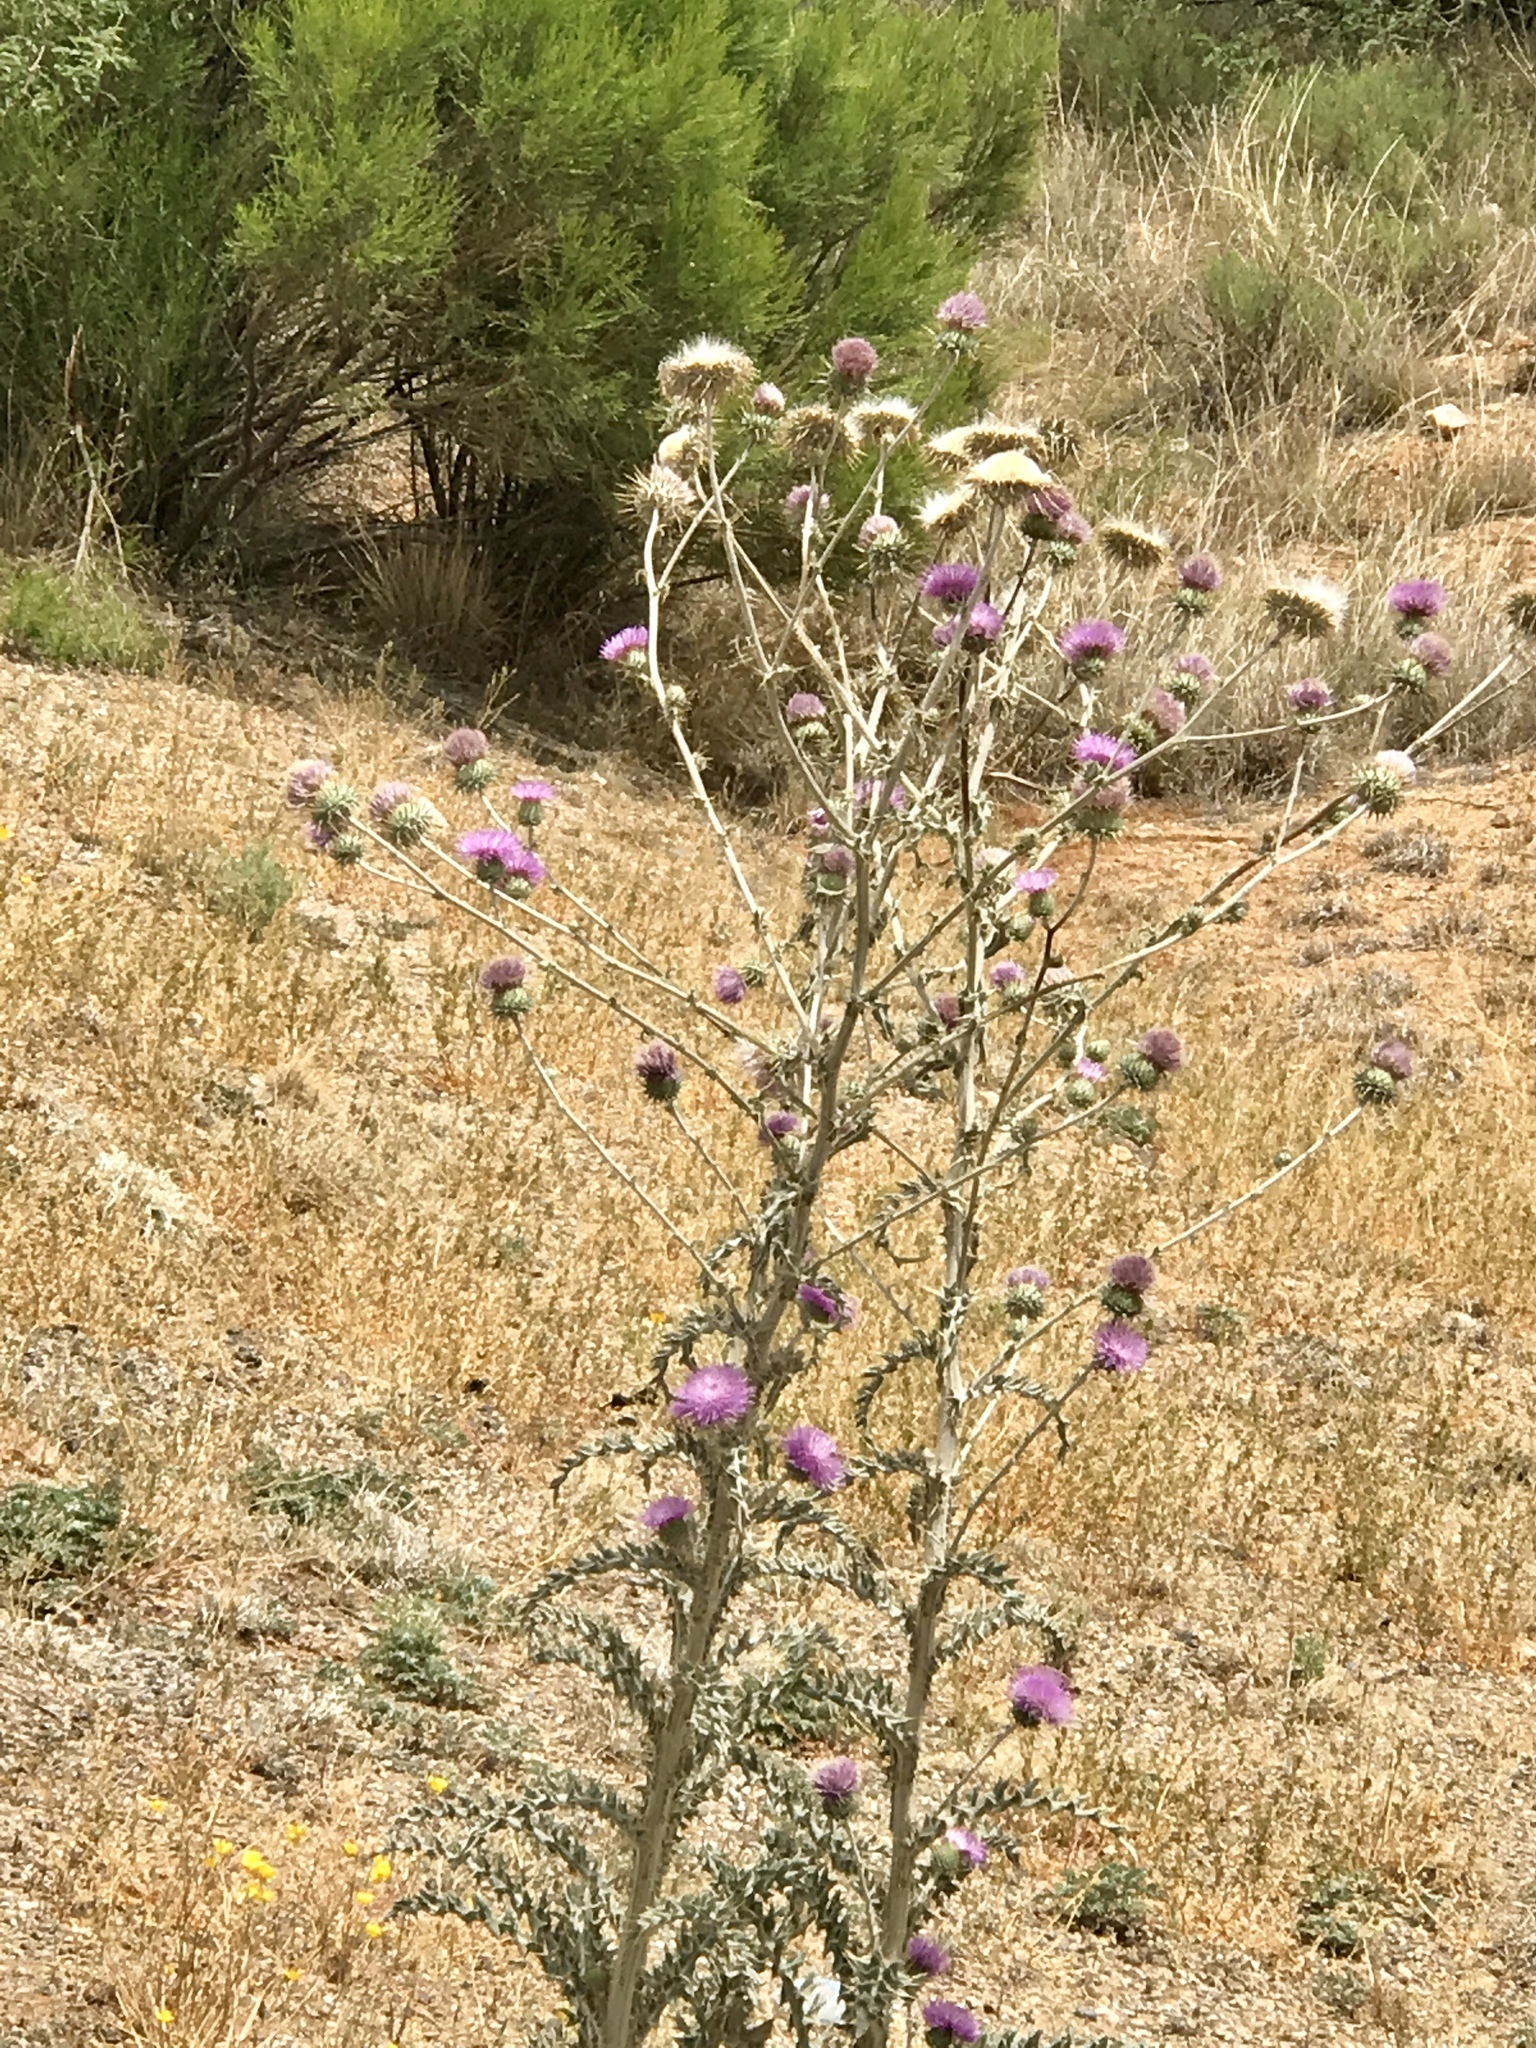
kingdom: Plantae
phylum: Tracheophyta
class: Magnoliopsida
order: Asterales
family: Asteraceae
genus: Cirsium
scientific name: Cirsium neomexicanum
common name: New mexico thistle
